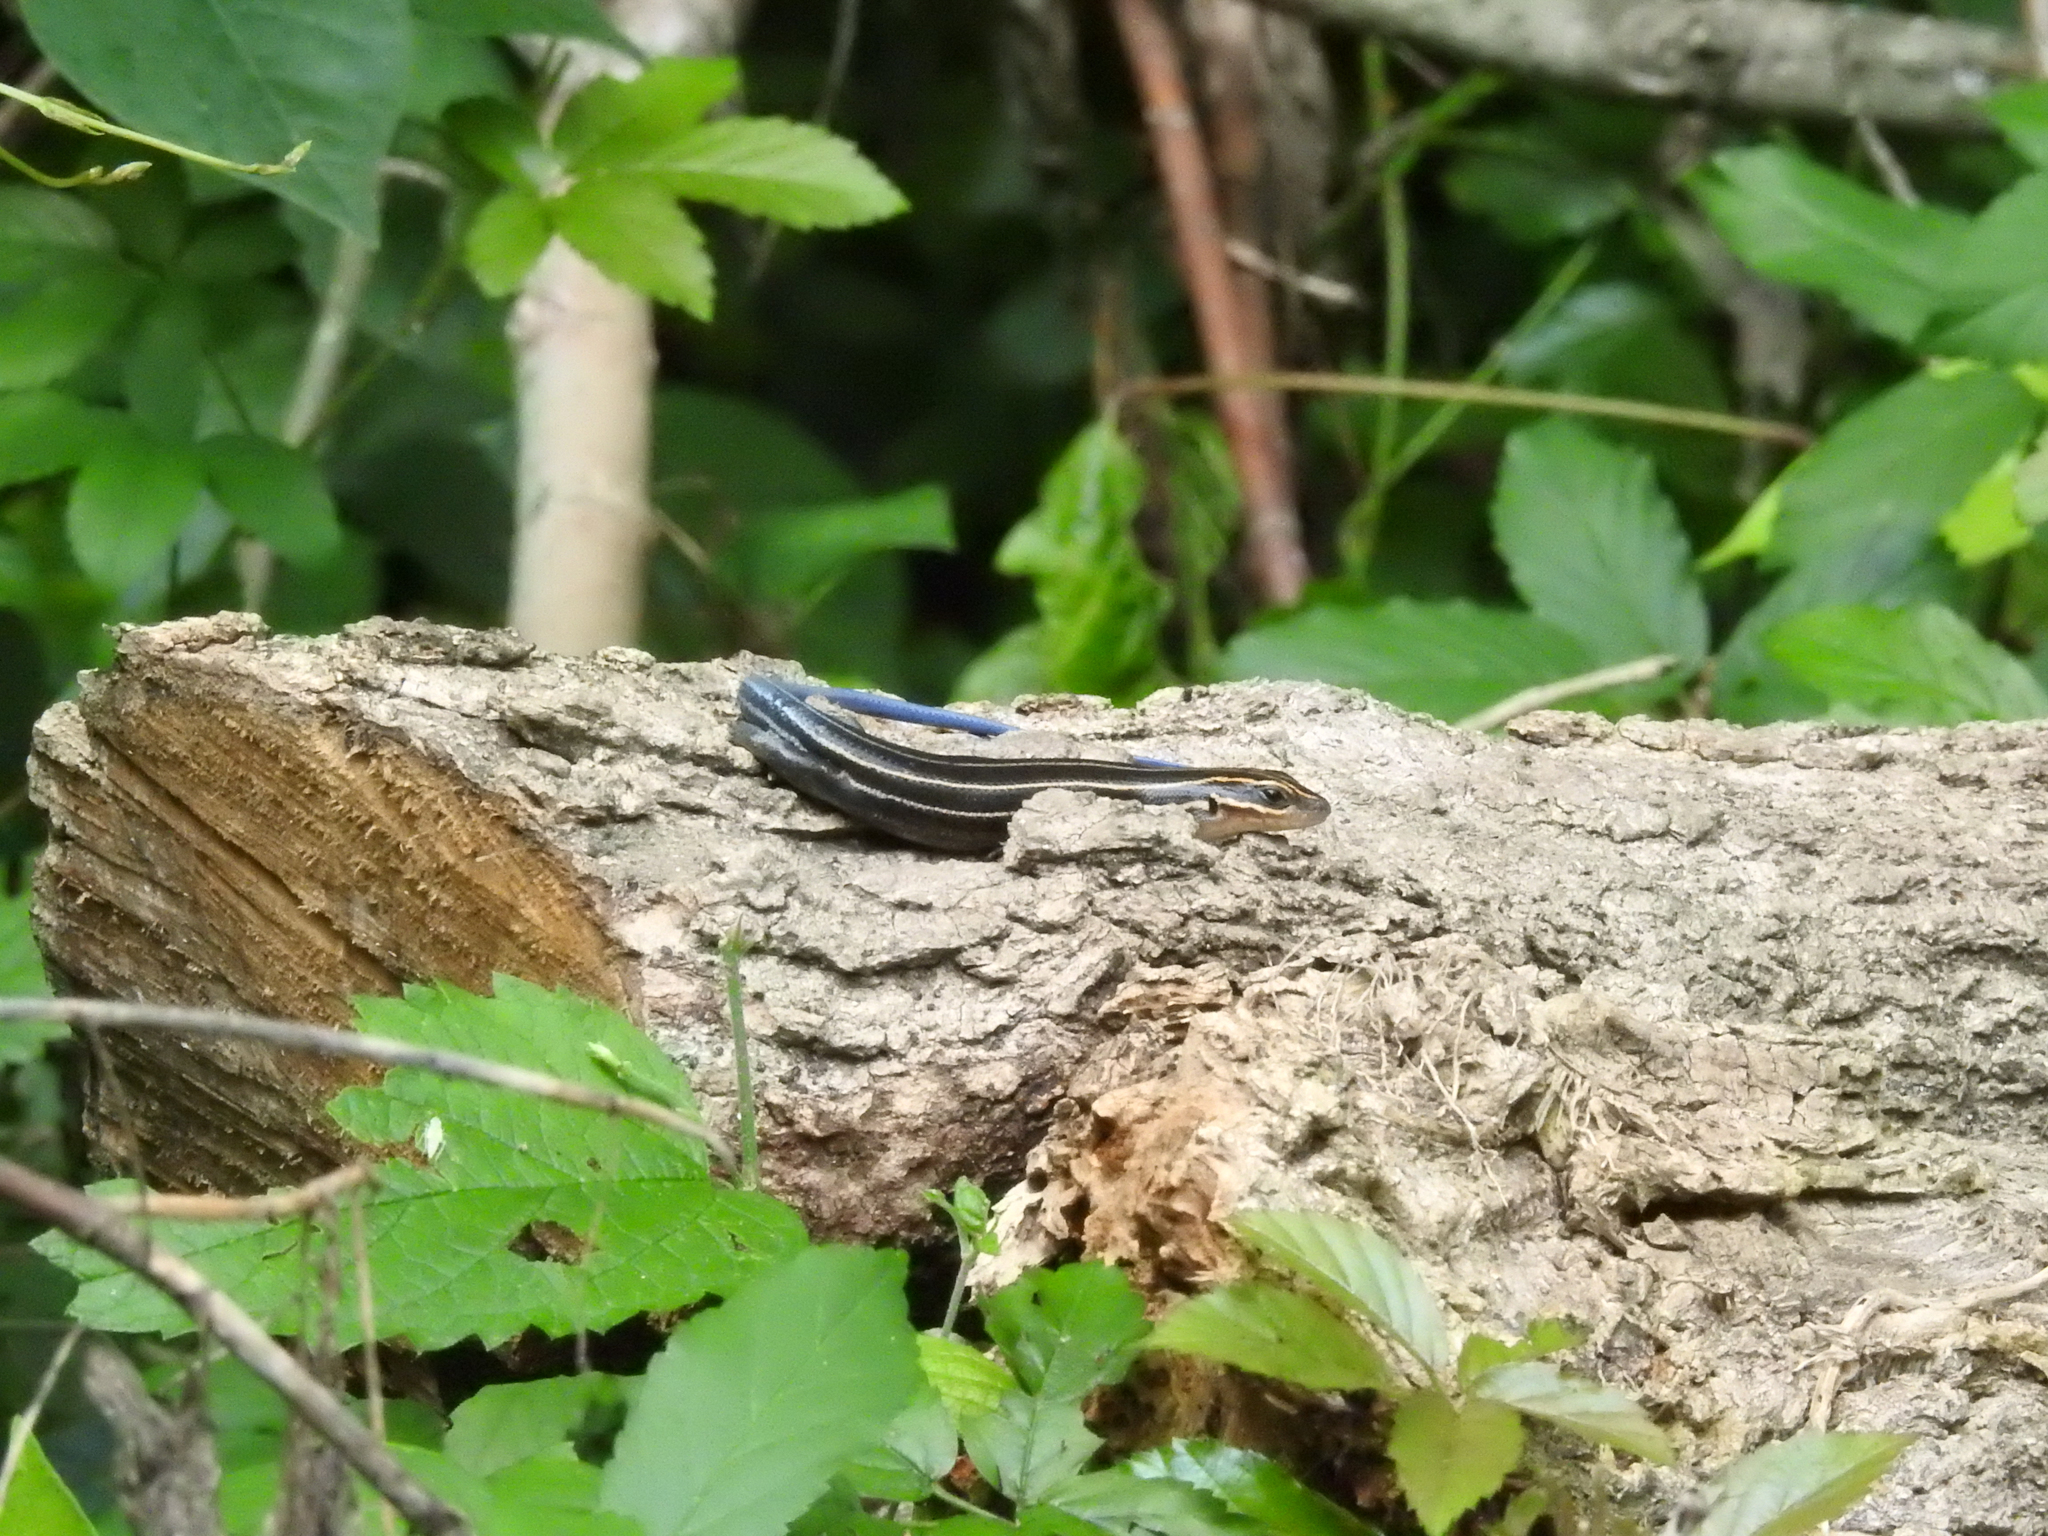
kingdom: Animalia
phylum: Chordata
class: Squamata
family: Scincidae
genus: Plestiodon
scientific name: Plestiodon
